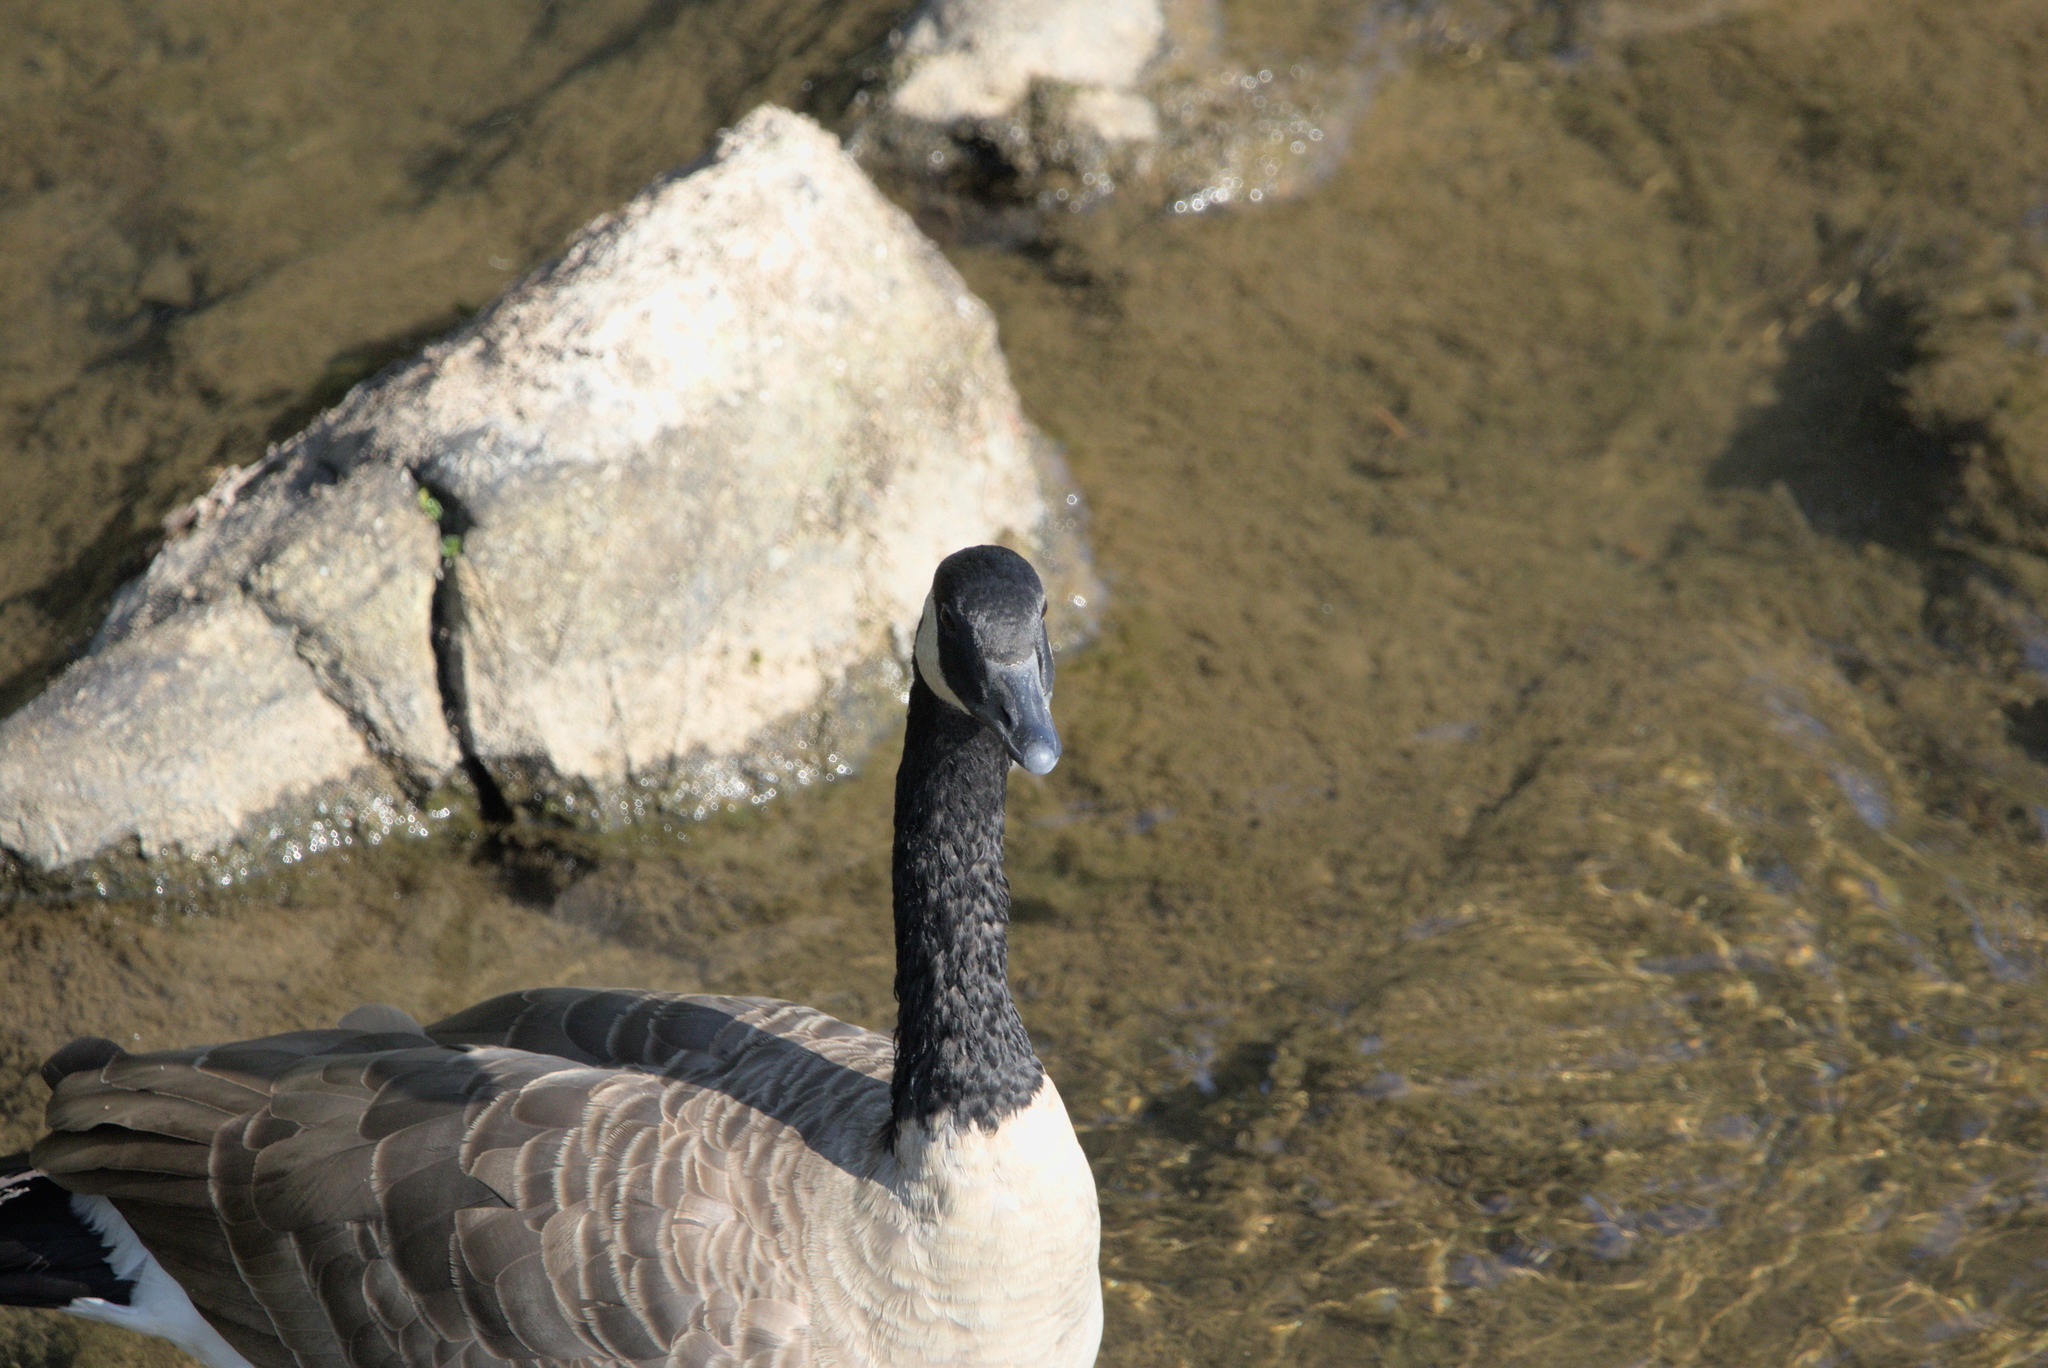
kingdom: Animalia
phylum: Chordata
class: Aves
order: Anseriformes
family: Anatidae
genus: Branta
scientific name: Branta canadensis
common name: Canada goose
